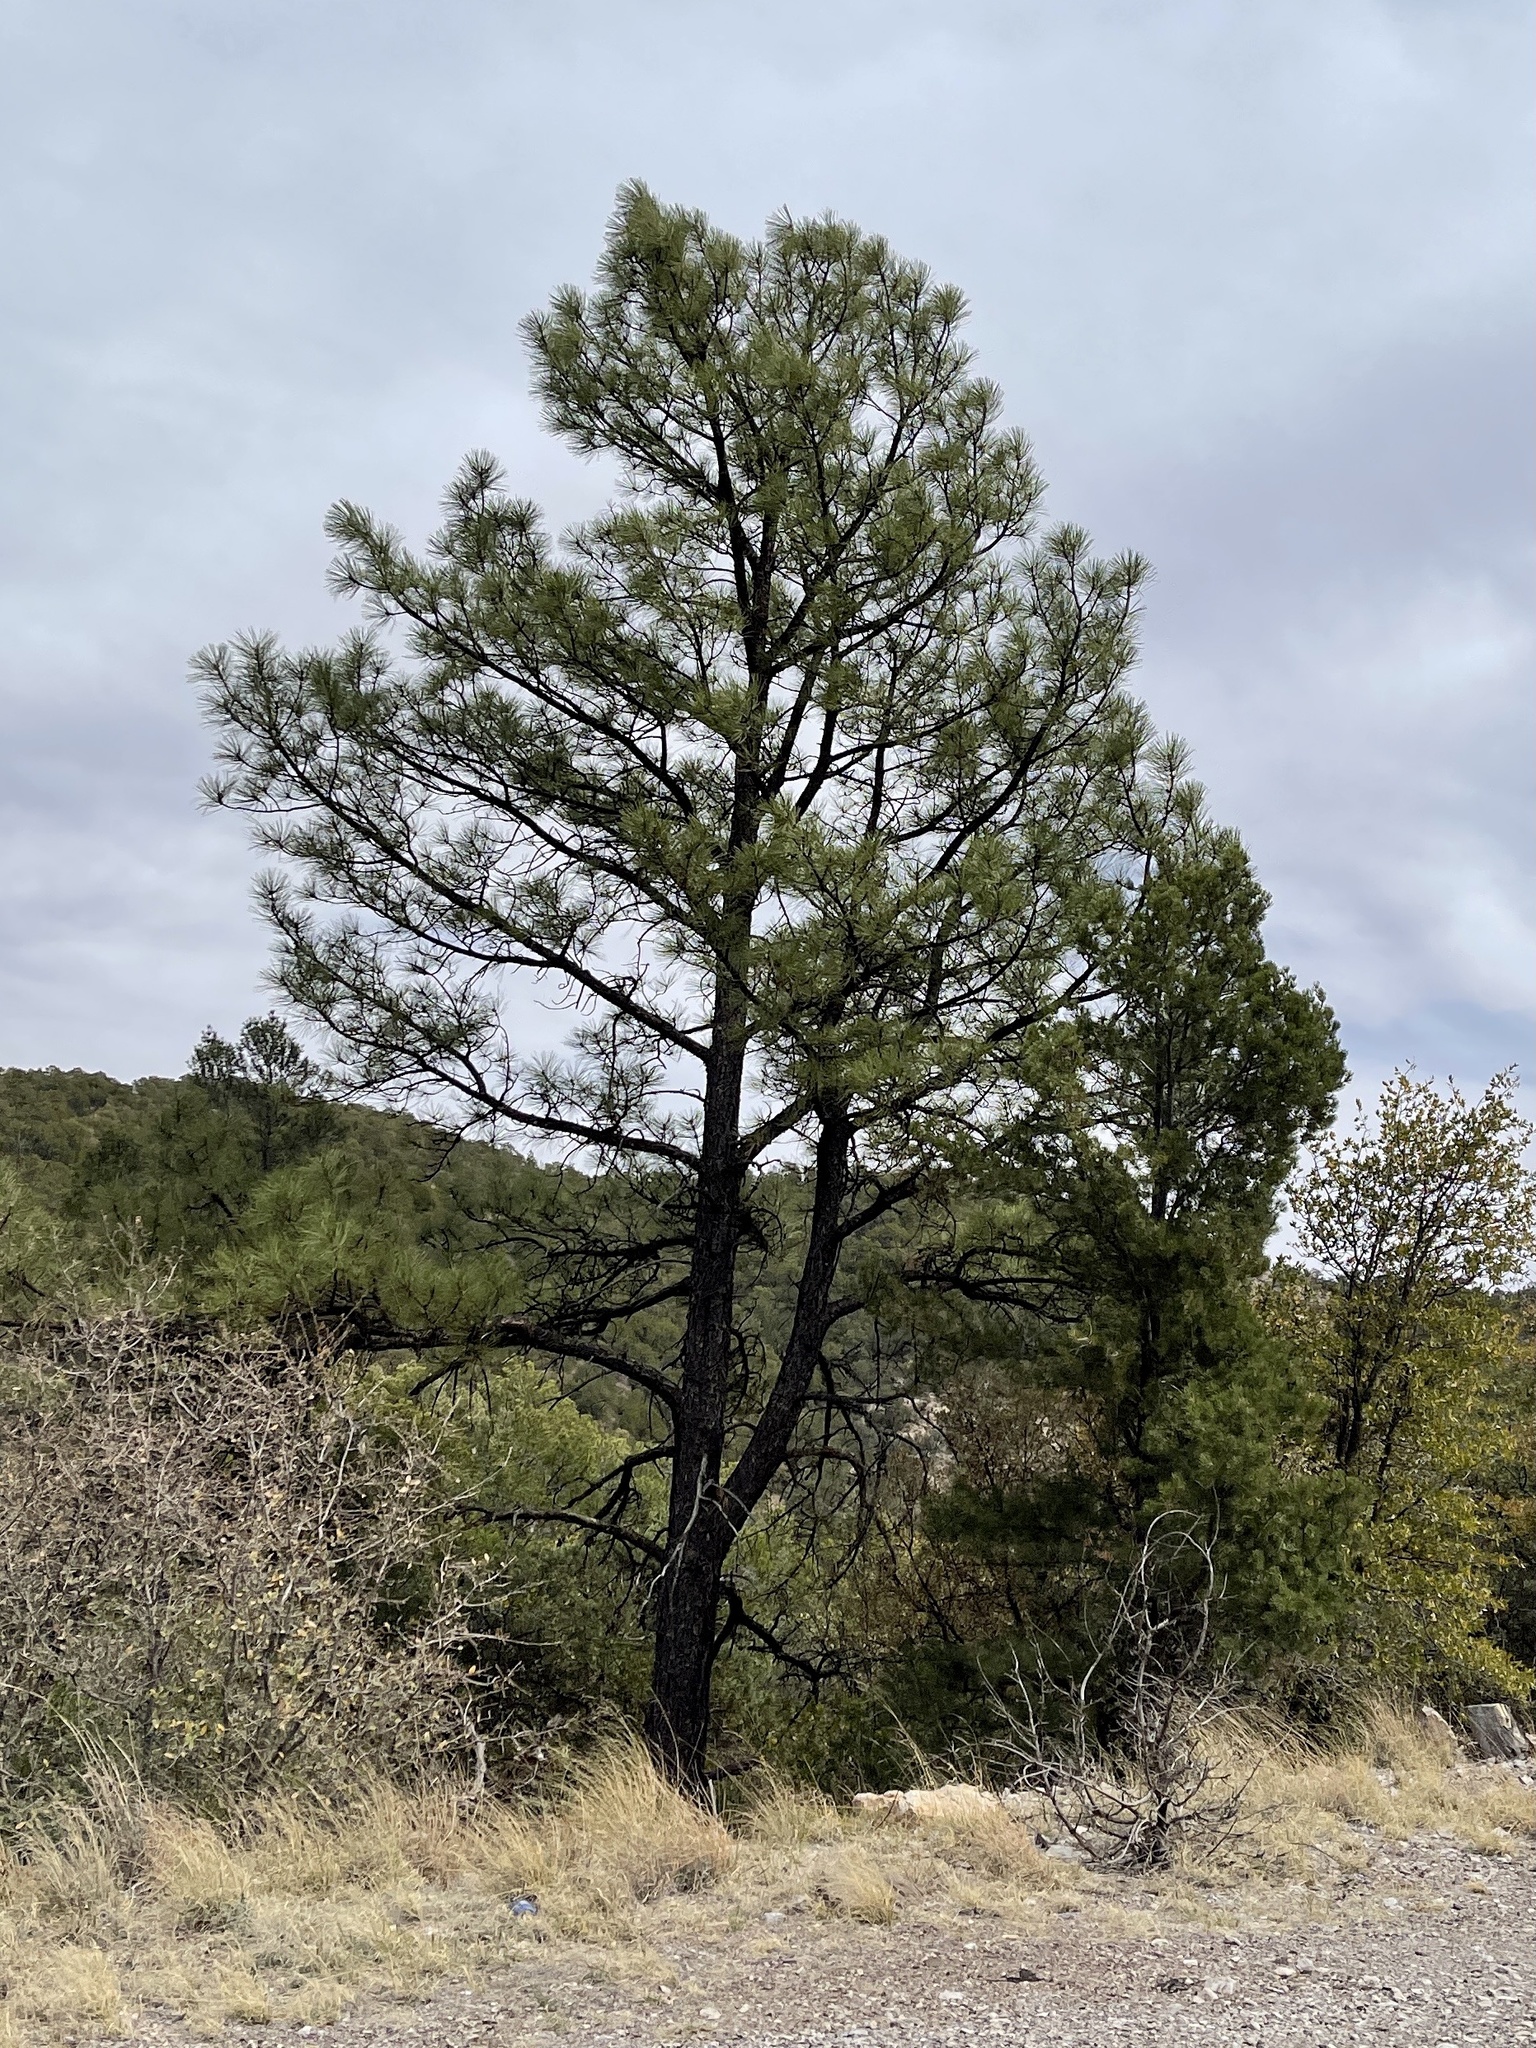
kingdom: Plantae
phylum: Tracheophyta
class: Pinopsida
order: Pinales
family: Pinaceae
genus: Pinus
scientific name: Pinus ponderosa
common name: Western yellow-pine
